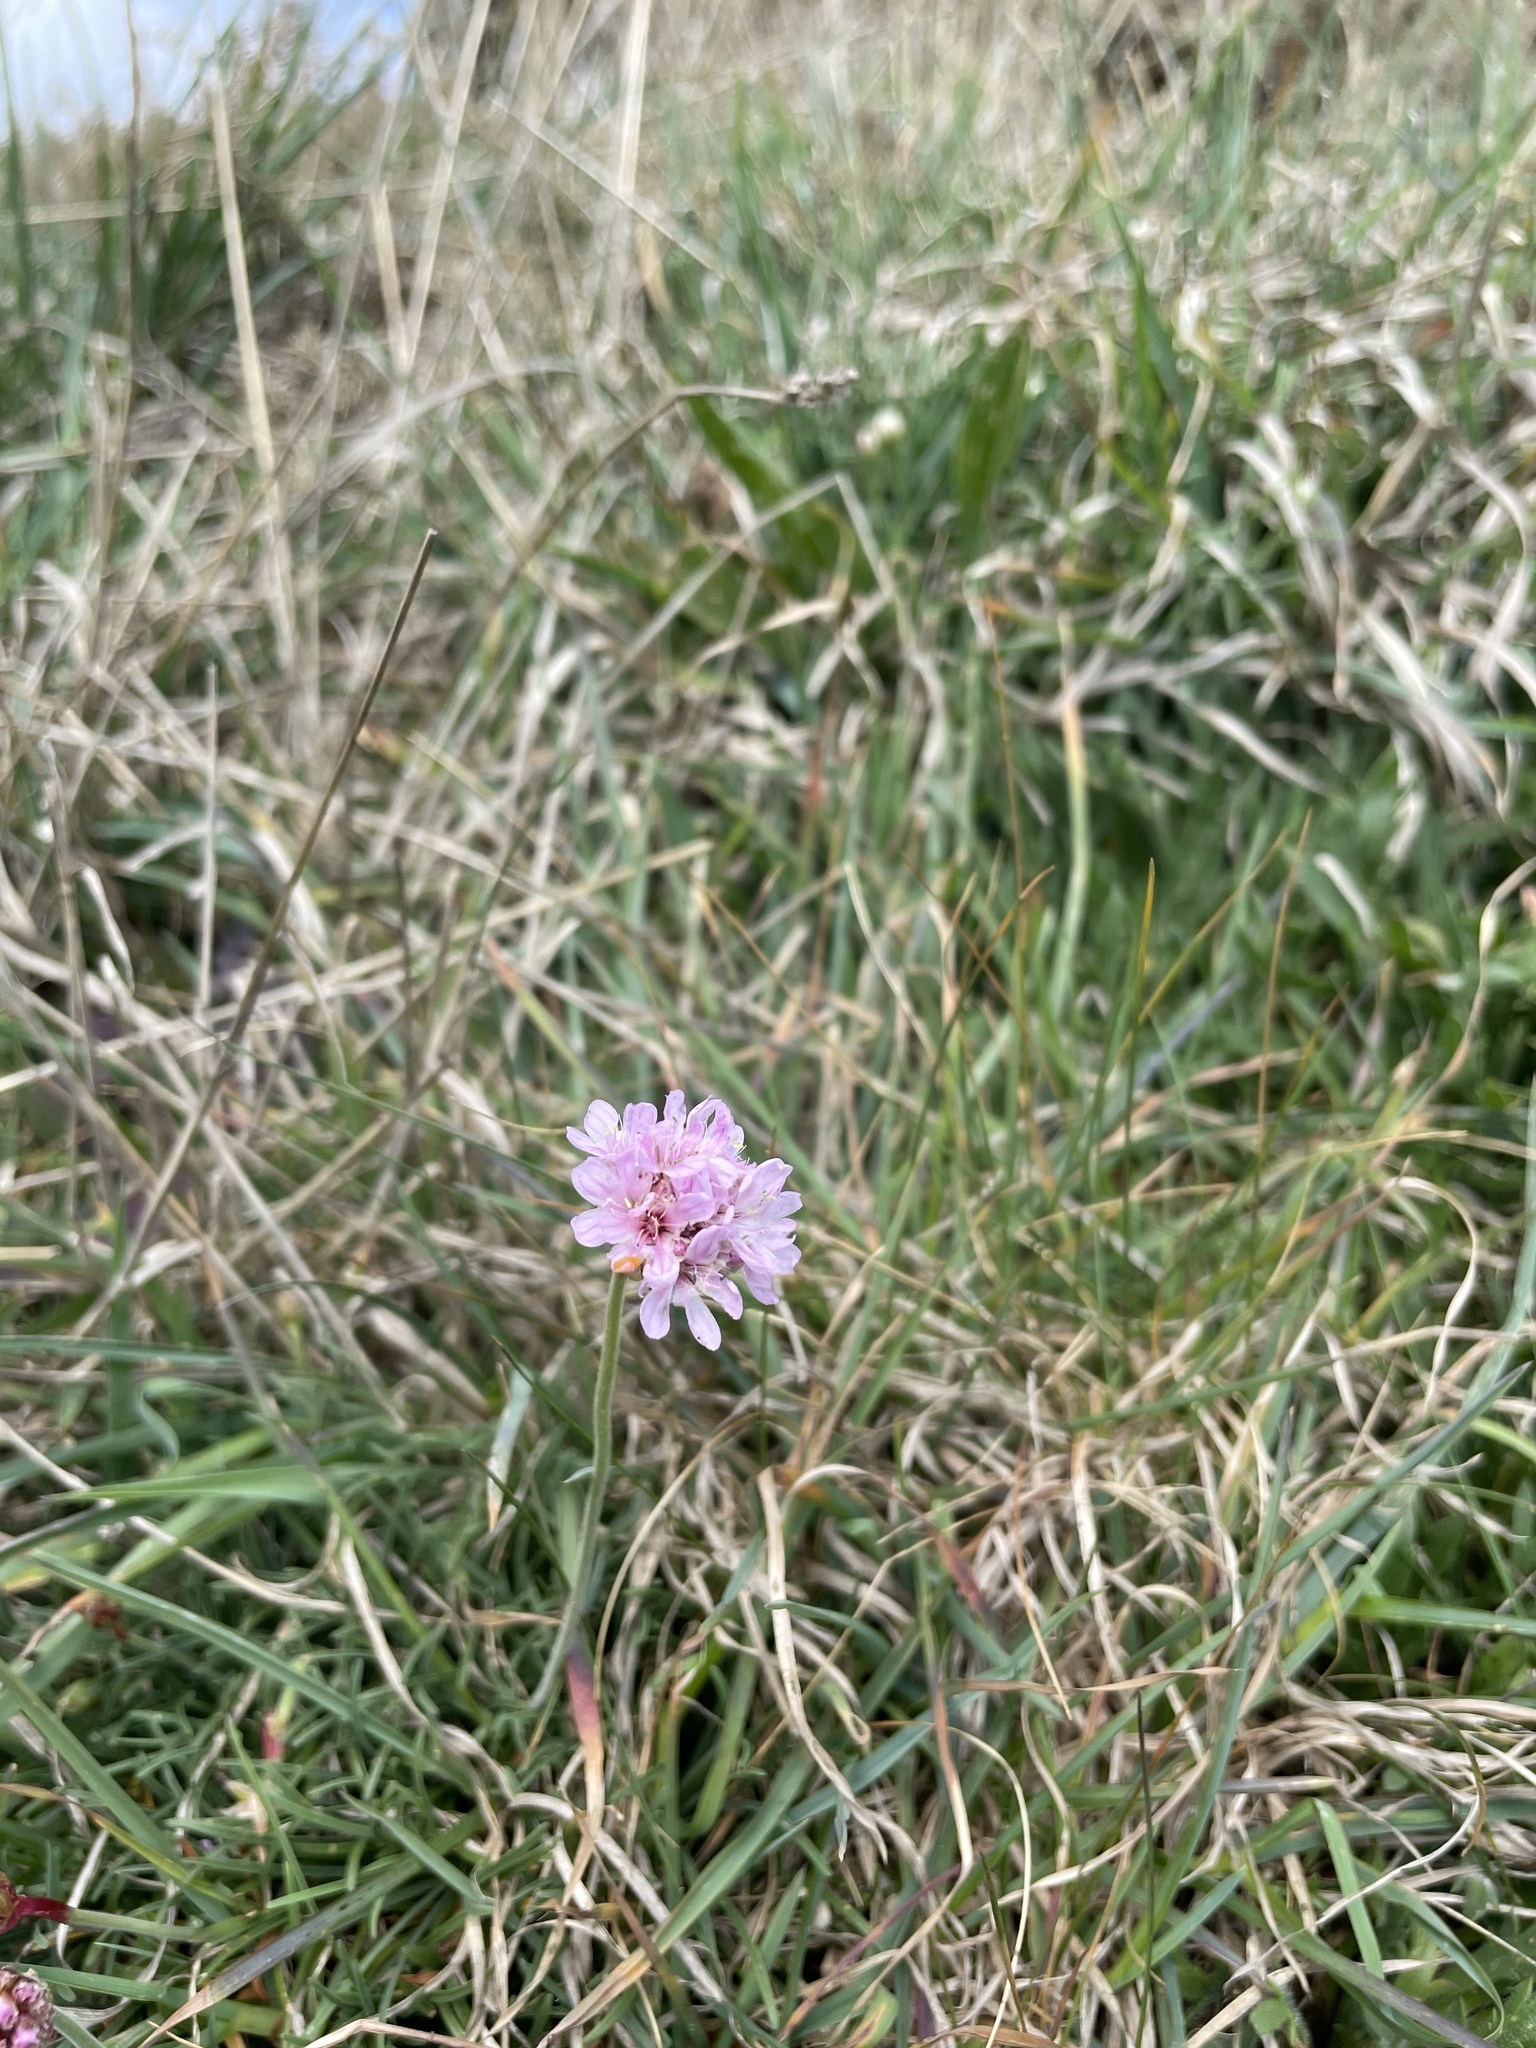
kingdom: Plantae
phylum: Tracheophyta
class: Magnoliopsida
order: Caryophyllales
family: Plumbaginaceae
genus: Armeria
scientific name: Armeria maritima
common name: Thrift
